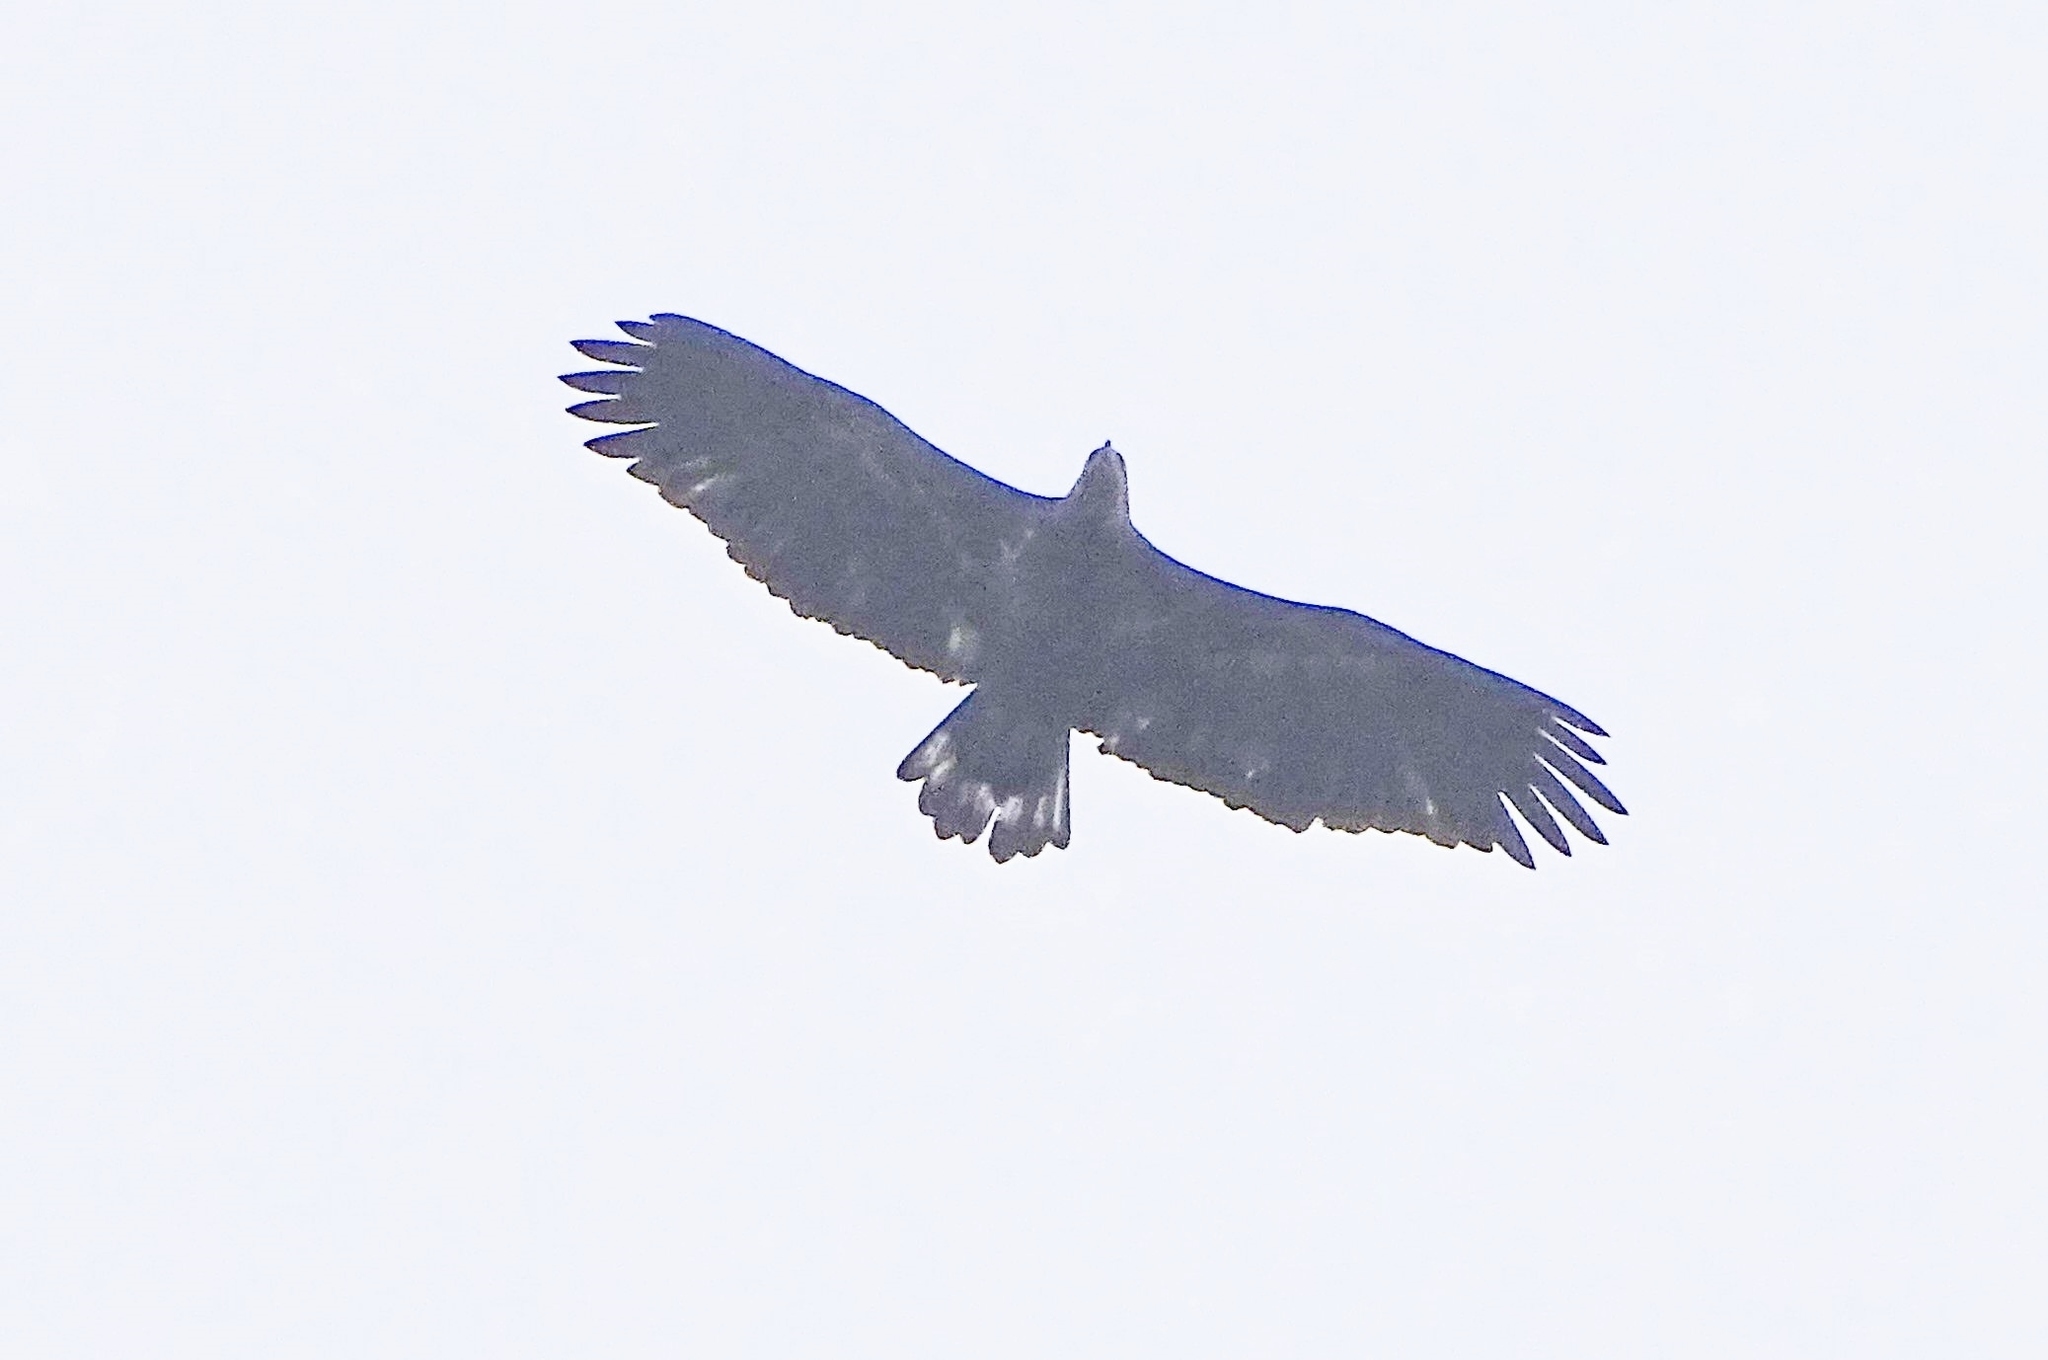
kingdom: Animalia
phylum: Chordata
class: Aves
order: Accipitriformes
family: Accipitridae
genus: Haliaeetus
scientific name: Haliaeetus leucocephalus
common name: Bald eagle
